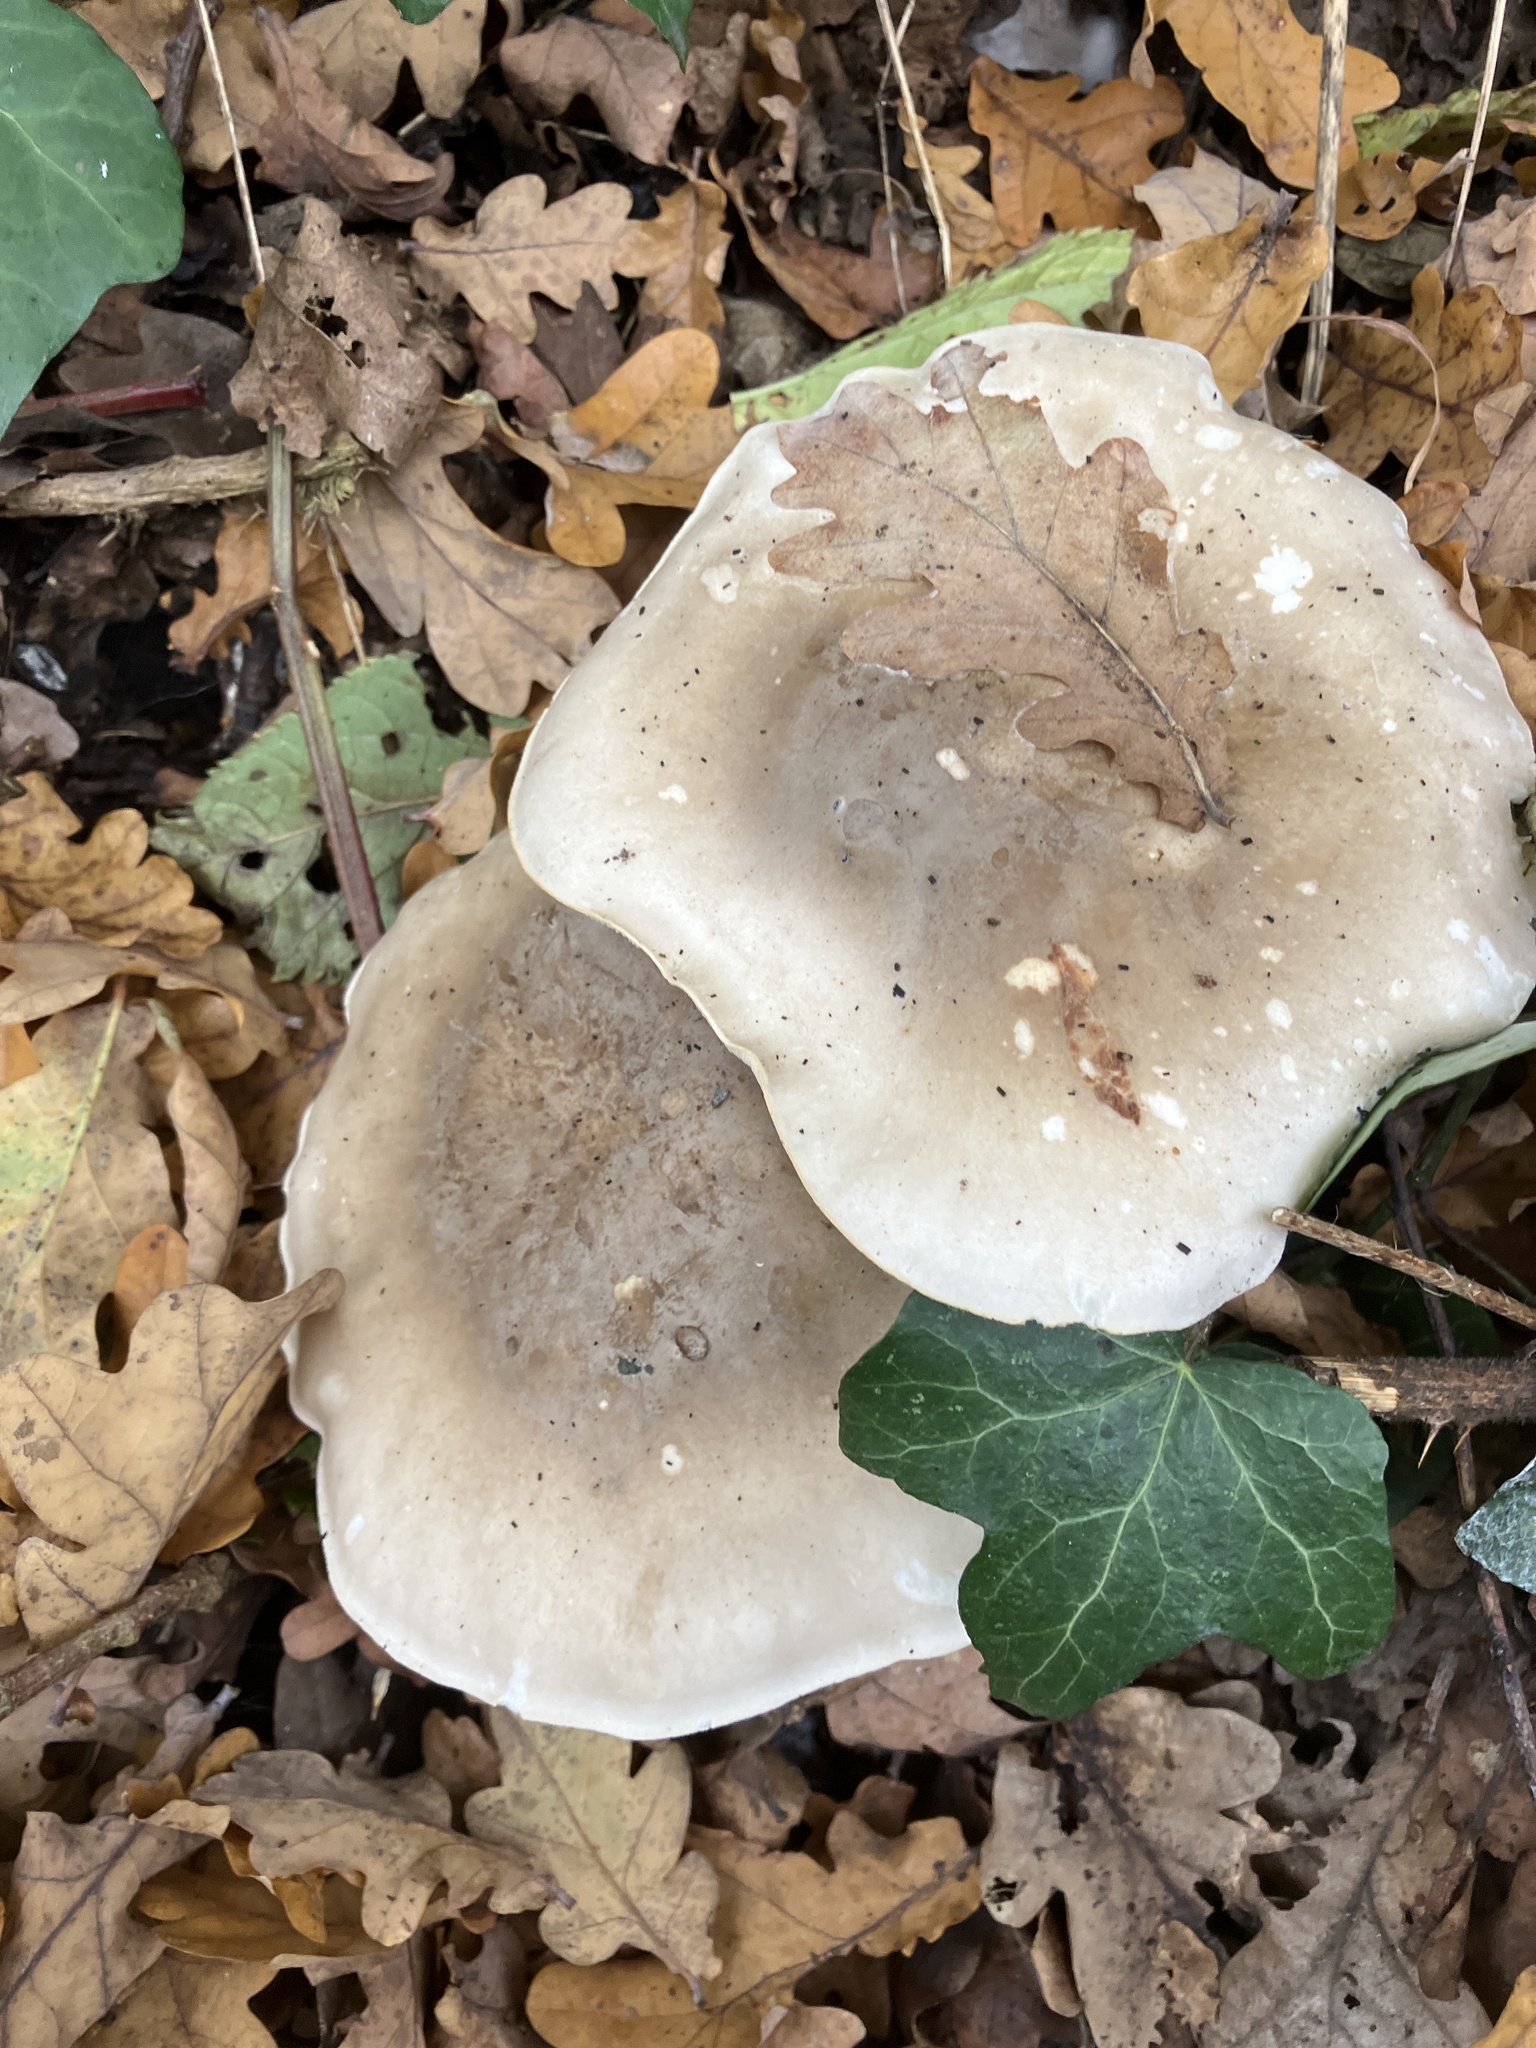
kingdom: Fungi
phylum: Basidiomycota
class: Agaricomycetes
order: Agaricales
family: Tricholomataceae
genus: Clitocybe
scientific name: Clitocybe nebularis
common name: Clouded agaric
